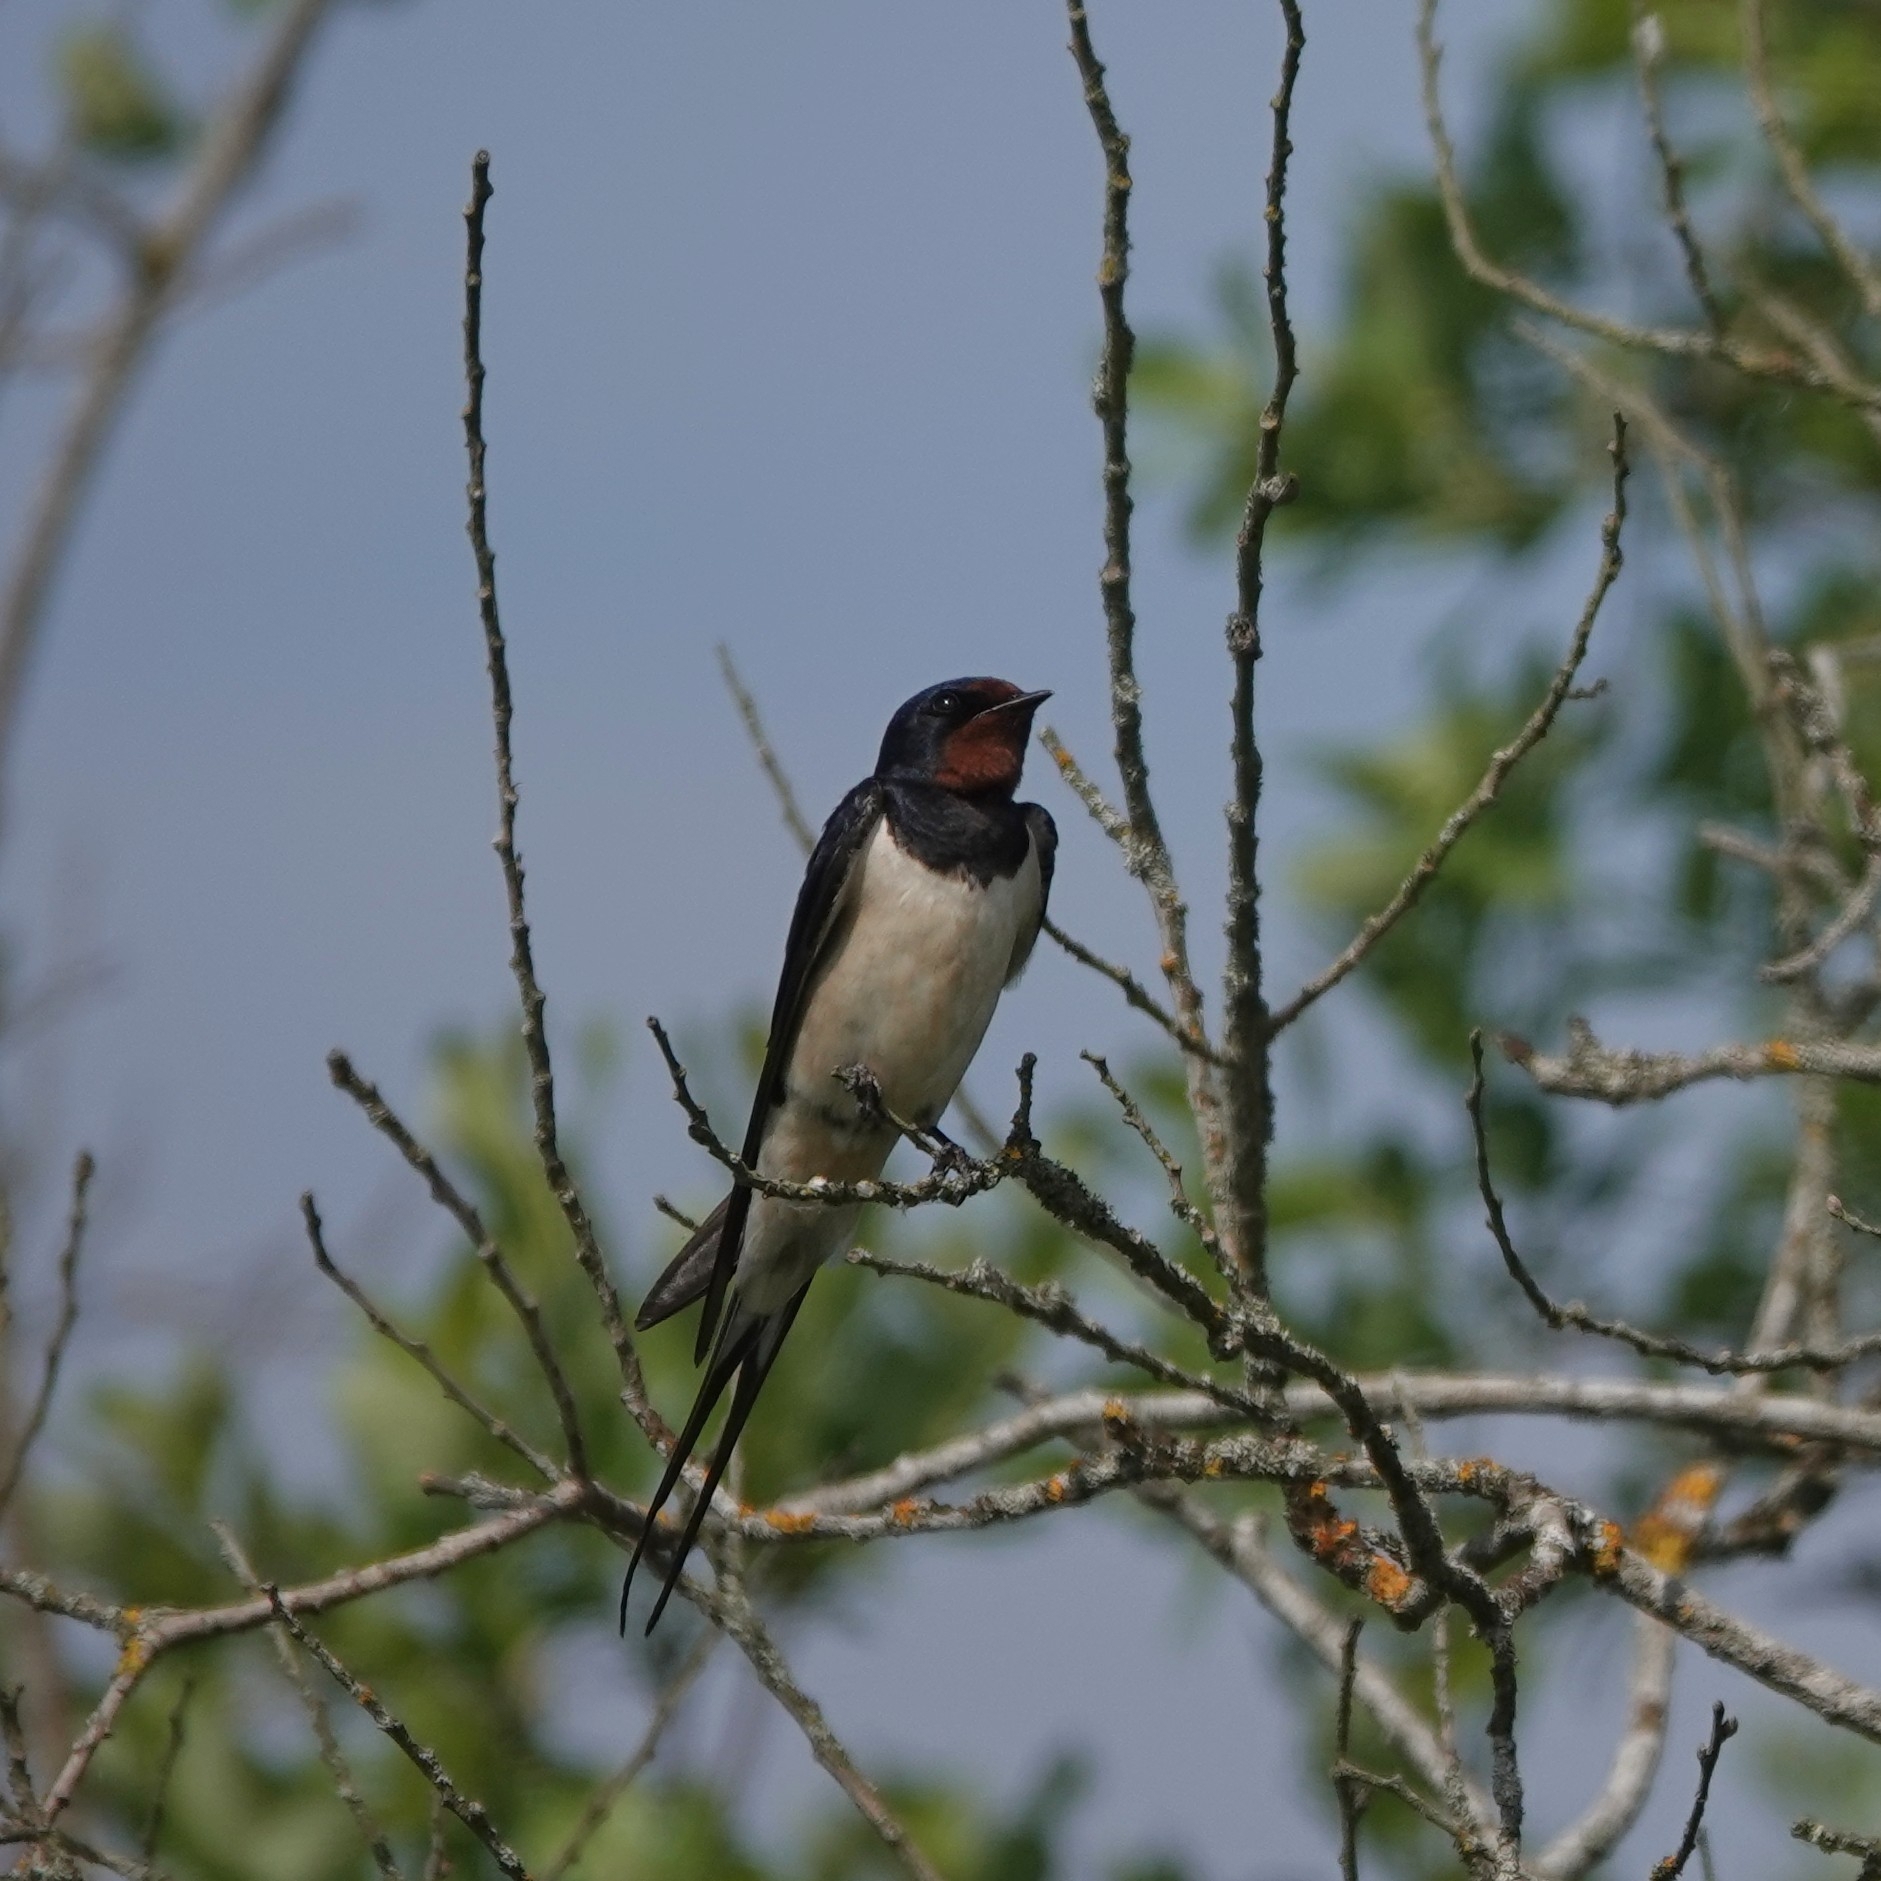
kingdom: Animalia
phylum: Chordata
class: Aves
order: Passeriformes
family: Hirundinidae
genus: Hirundo
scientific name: Hirundo rustica
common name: Barn swallow
